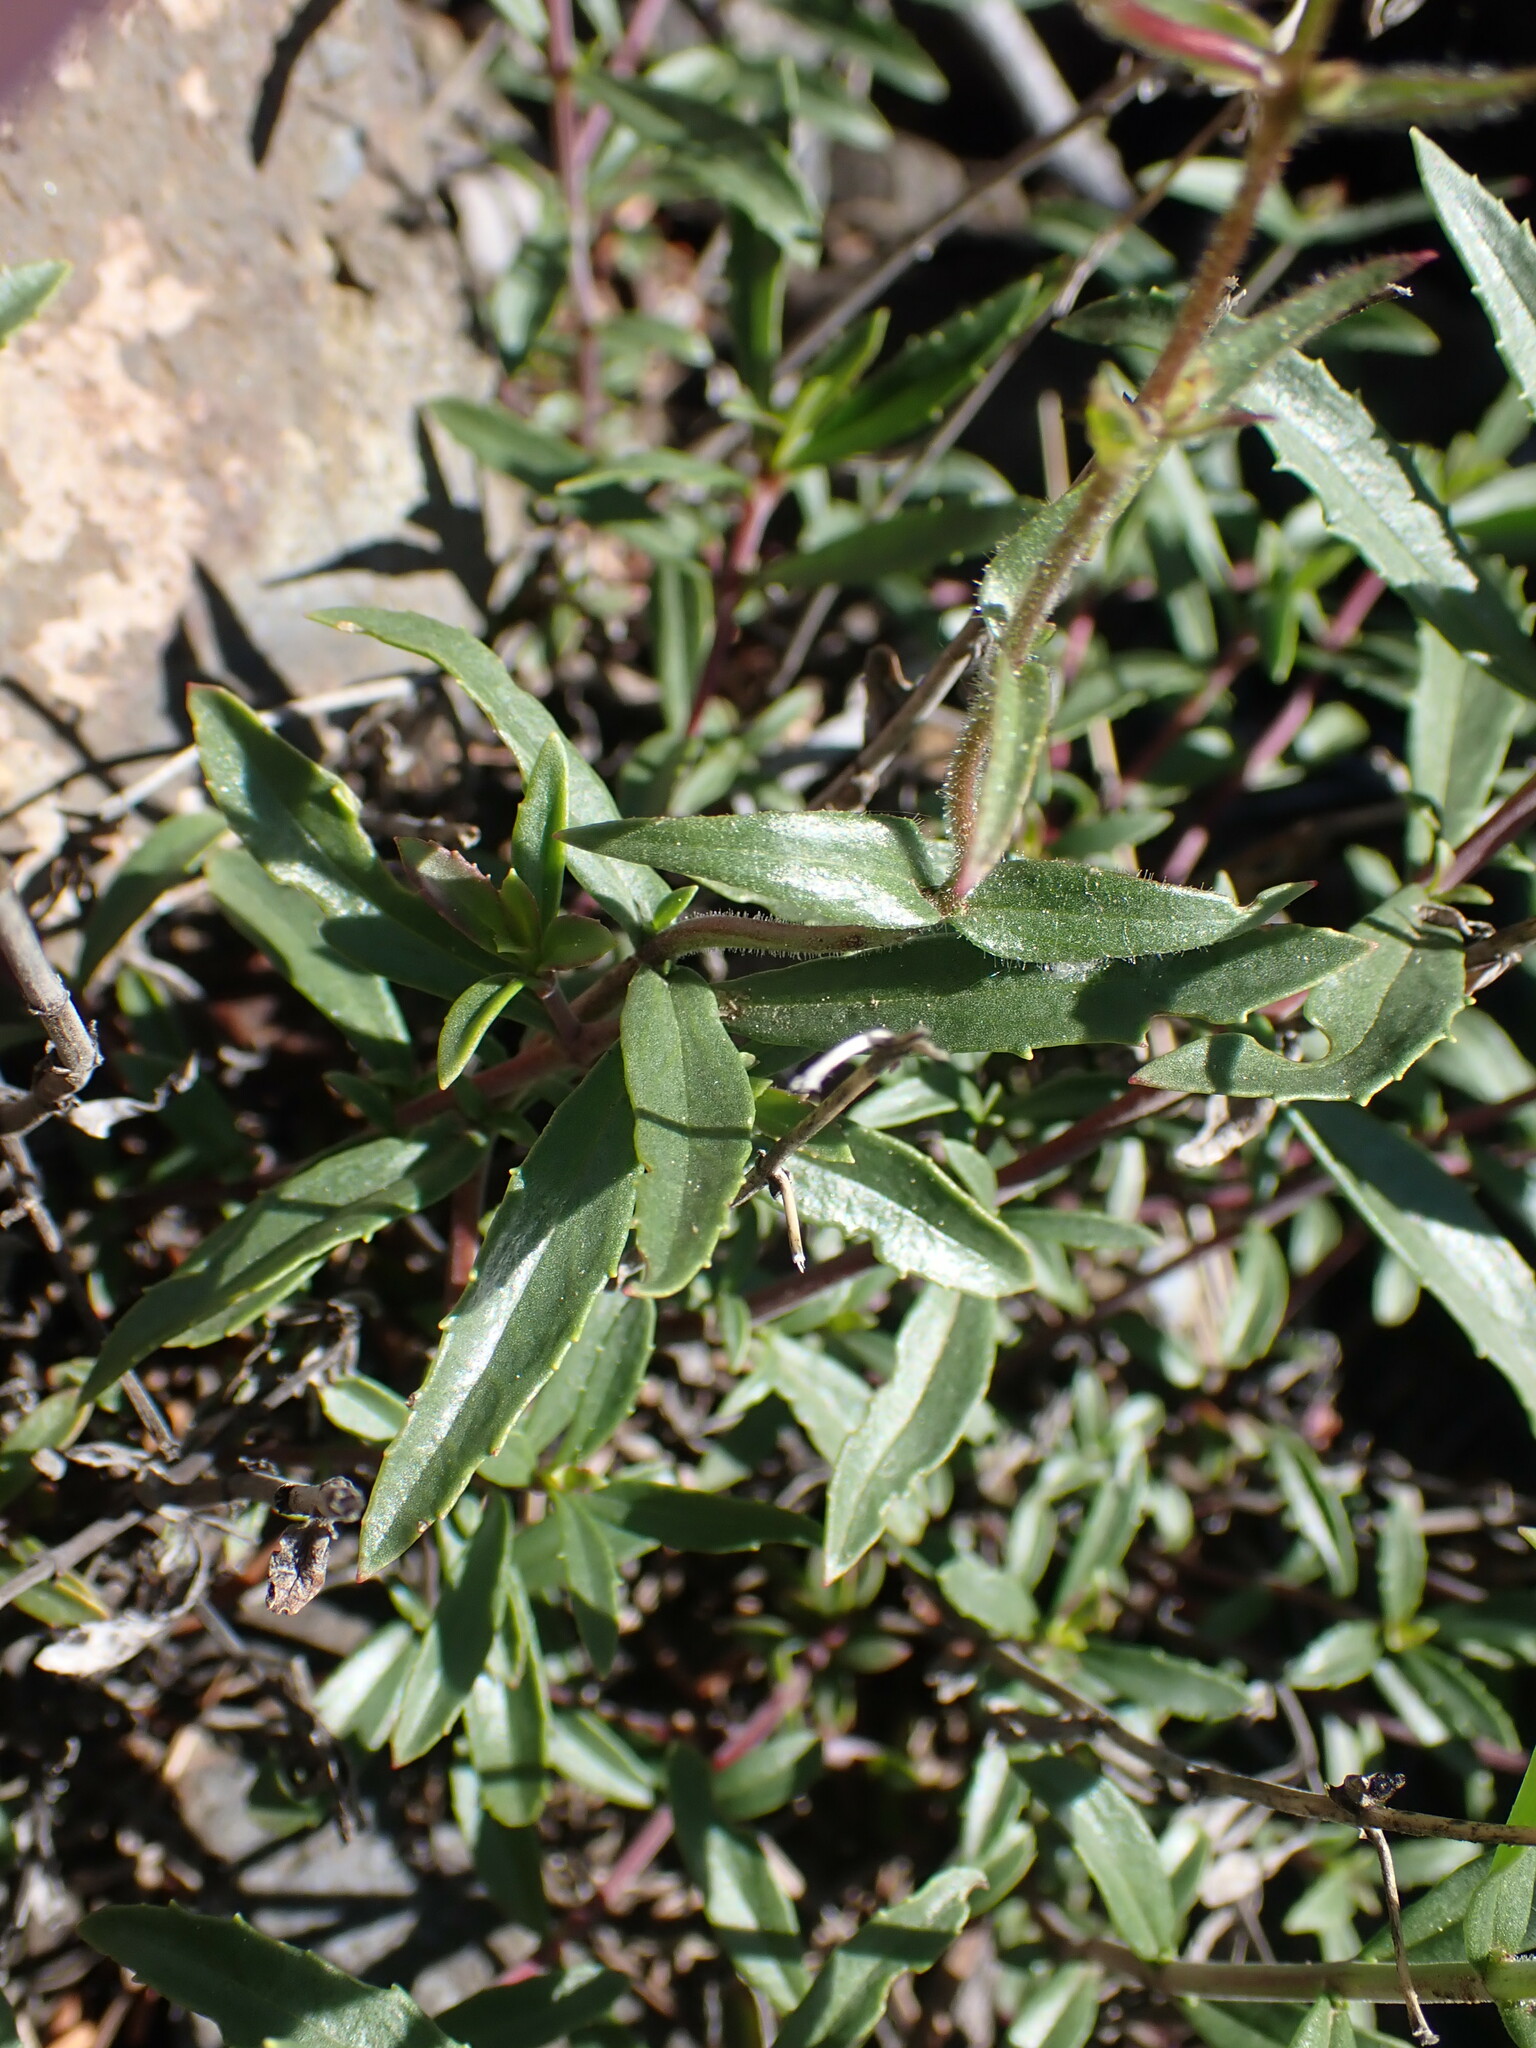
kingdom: Plantae
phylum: Tracheophyta
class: Magnoliopsida
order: Lamiales
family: Plantaginaceae
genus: Penstemon
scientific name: Penstemon fruticosus
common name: Bush penstemon
